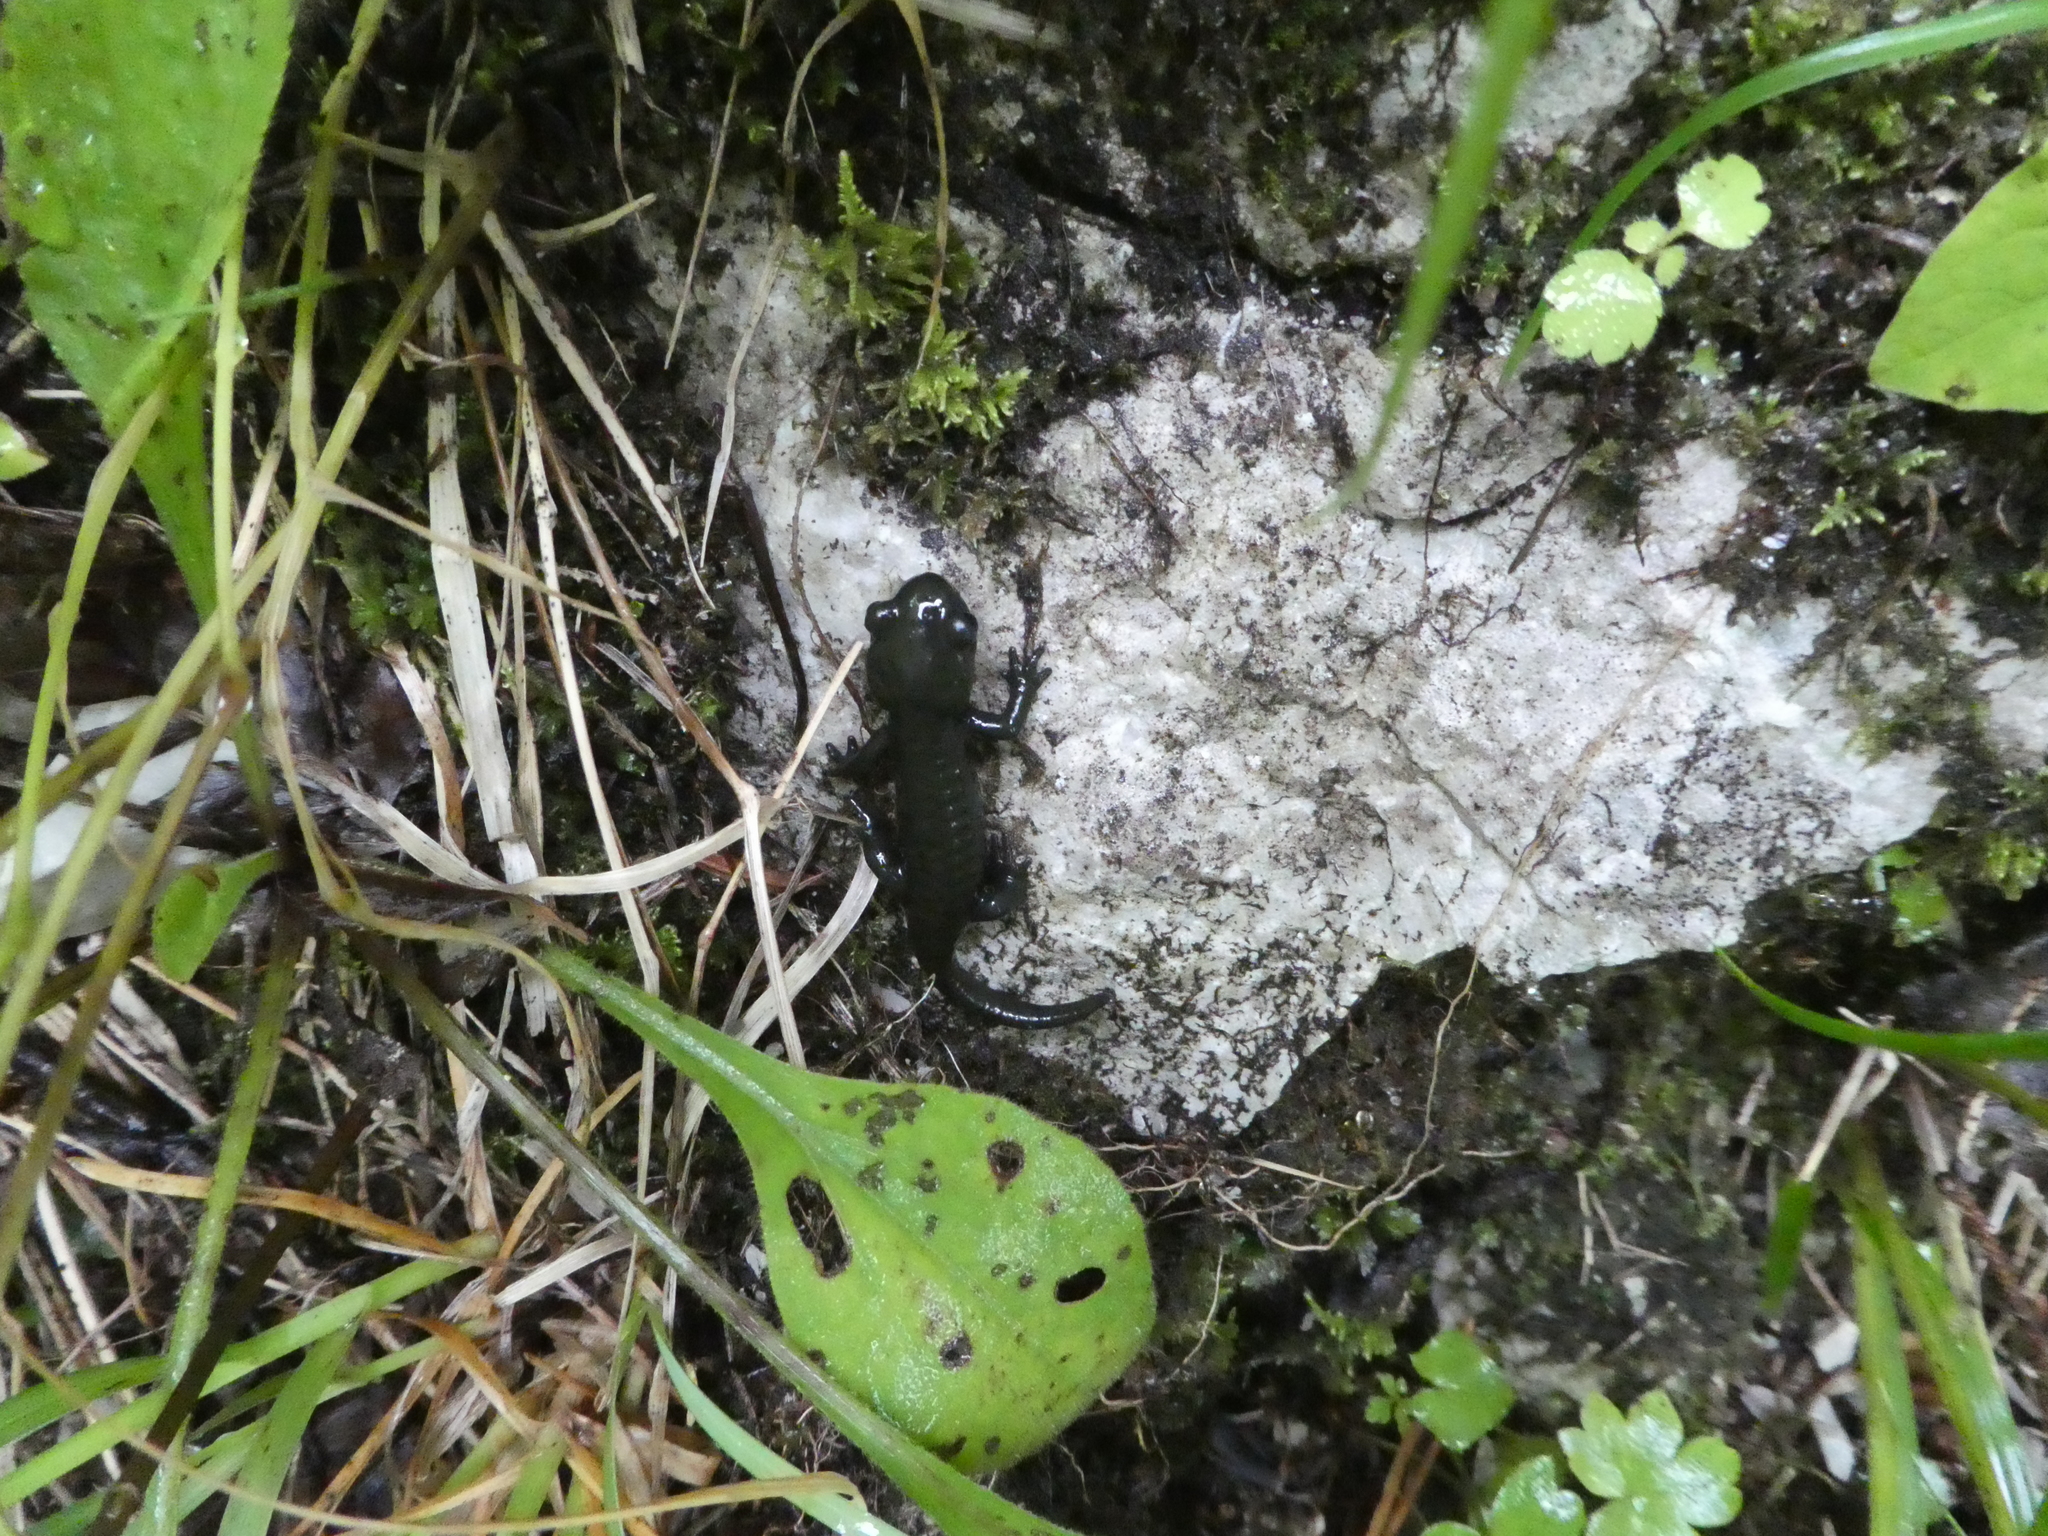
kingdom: Animalia
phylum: Chordata
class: Amphibia
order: Caudata
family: Salamandridae
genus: Salamandra
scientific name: Salamandra atra
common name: Alpine salamander
